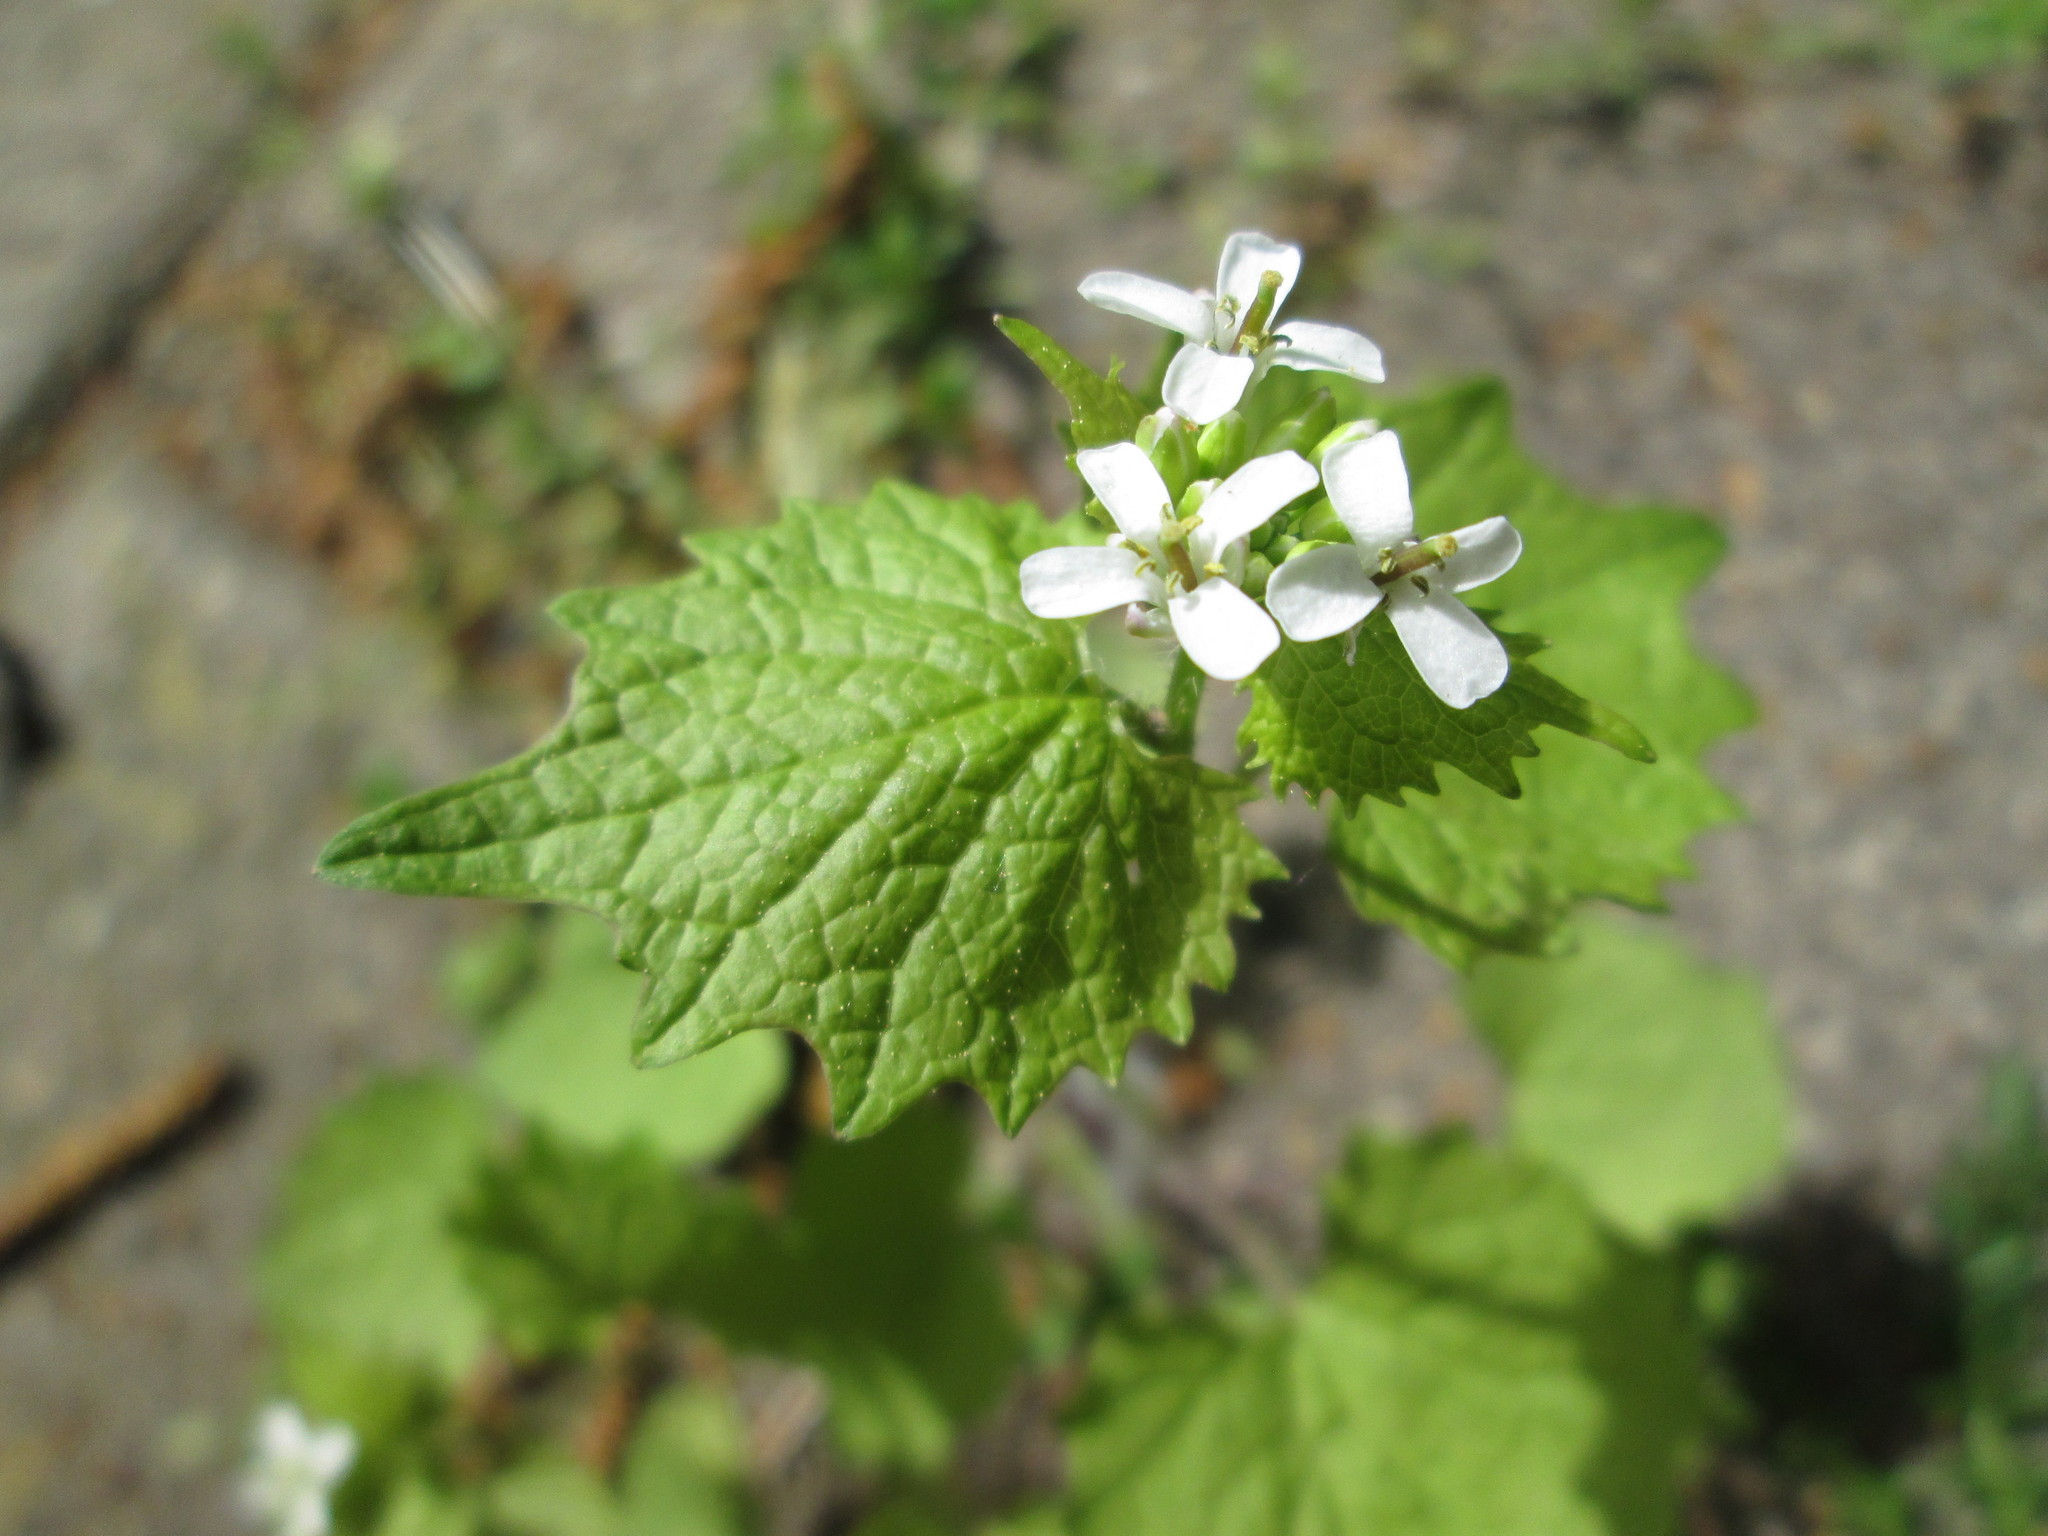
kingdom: Plantae
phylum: Tracheophyta
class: Magnoliopsida
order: Brassicales
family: Brassicaceae
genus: Alliaria
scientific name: Alliaria petiolata
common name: Garlic mustard
